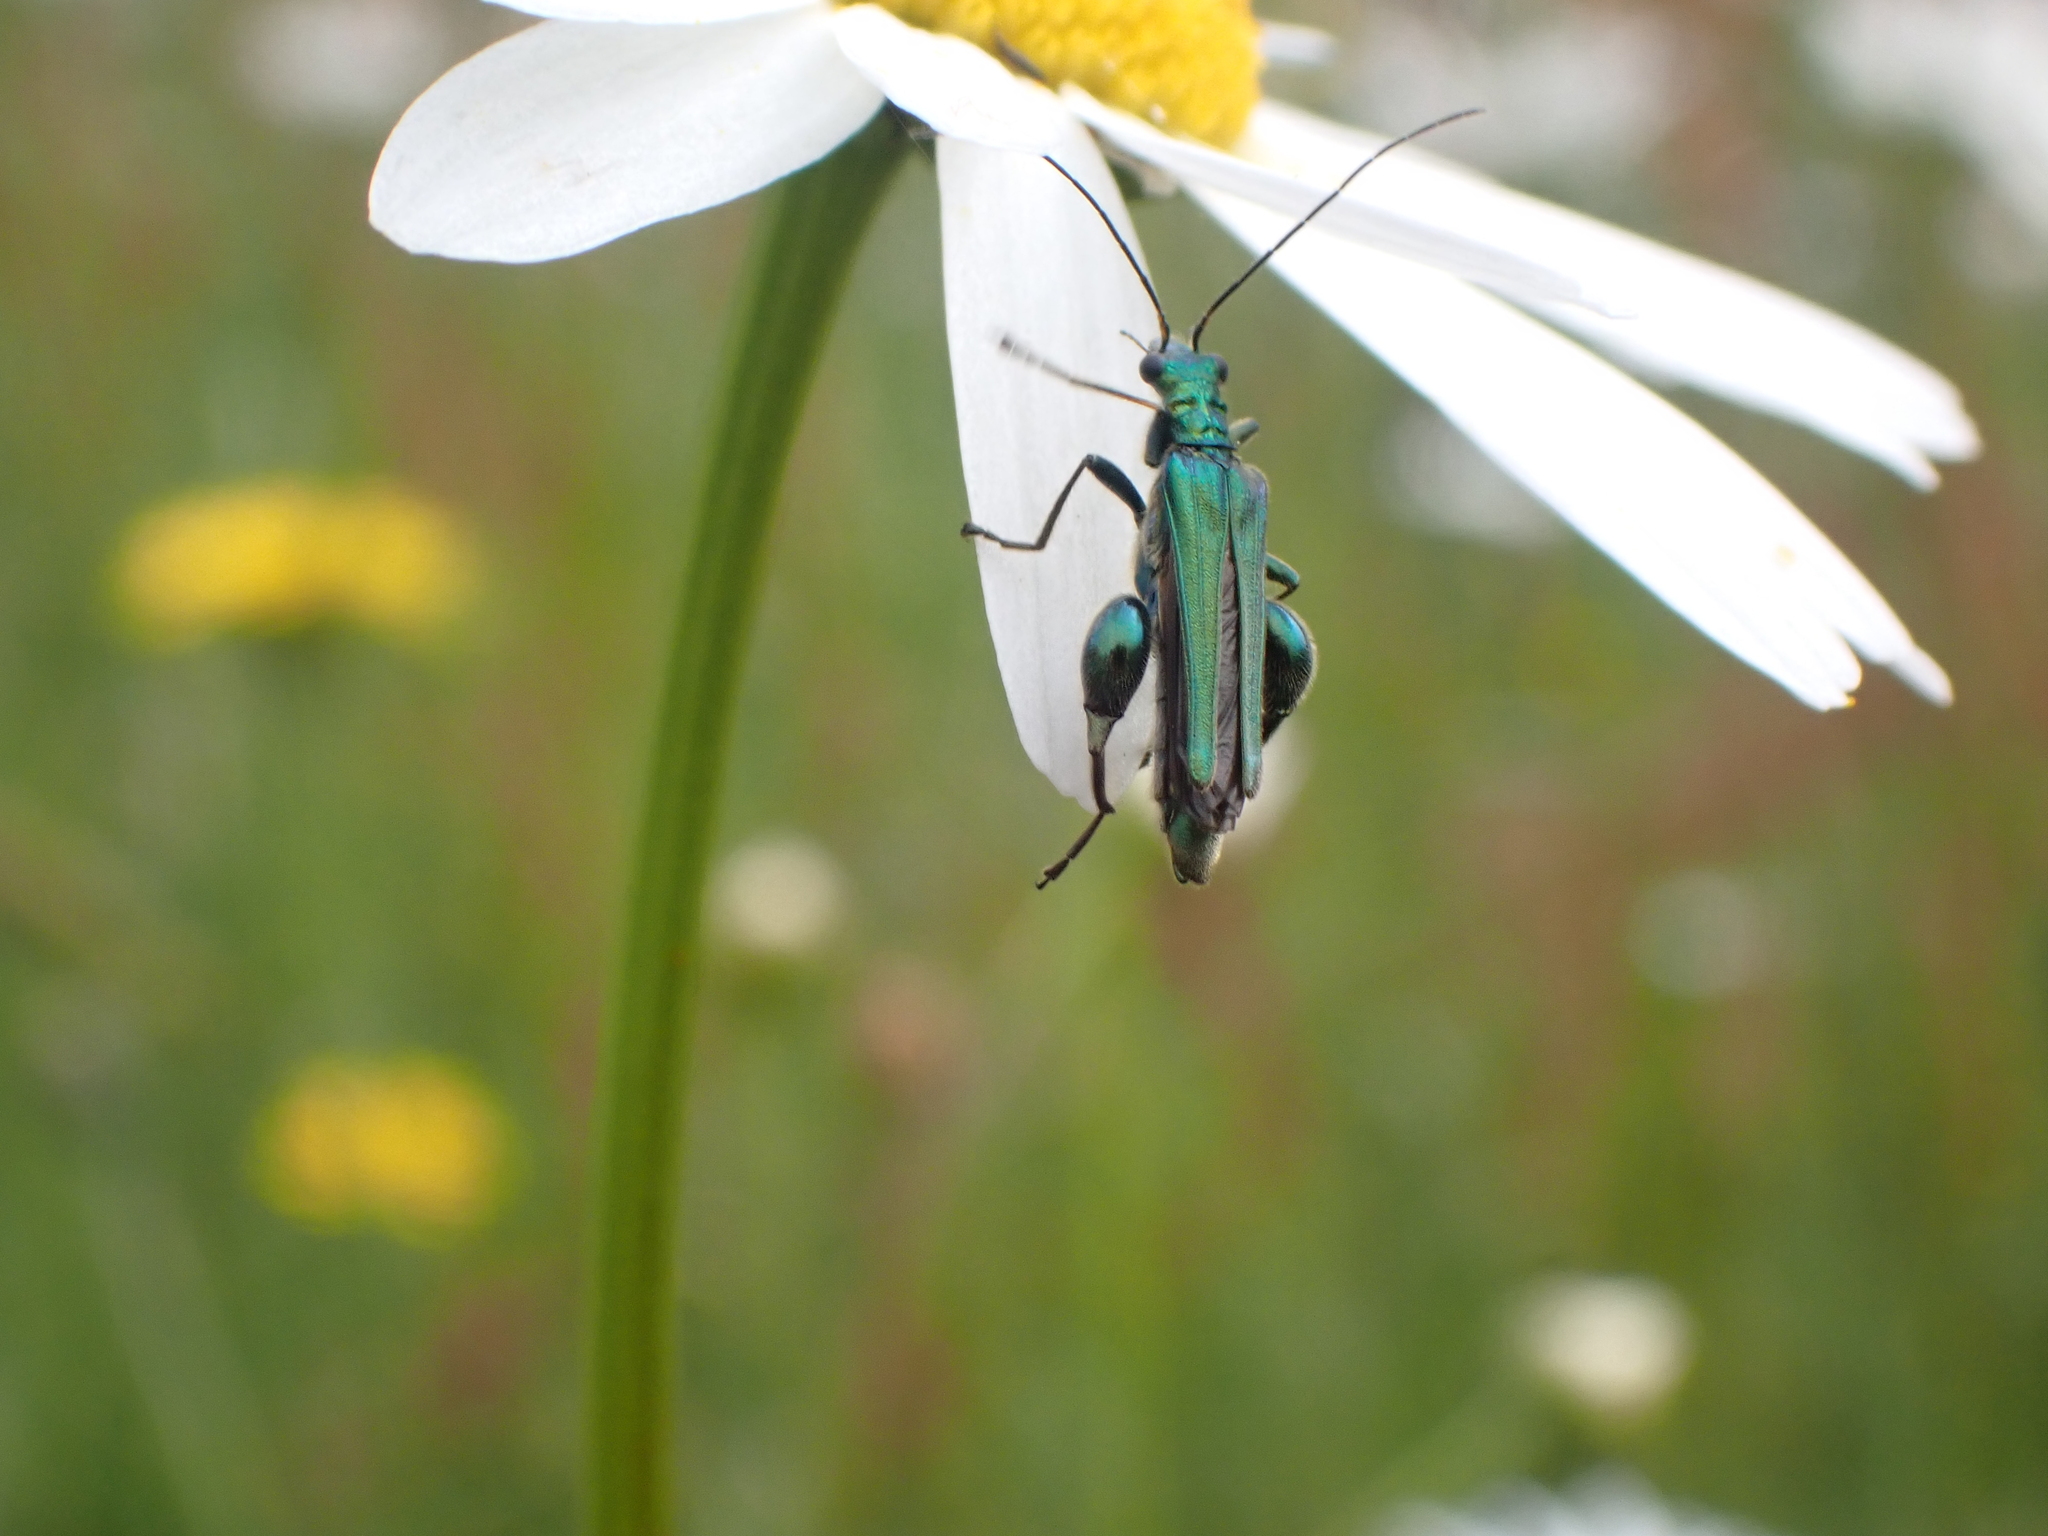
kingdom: Animalia
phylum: Arthropoda
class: Insecta
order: Coleoptera
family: Oedemeridae
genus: Oedemera
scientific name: Oedemera nobilis
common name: Swollen-thighed beetle
